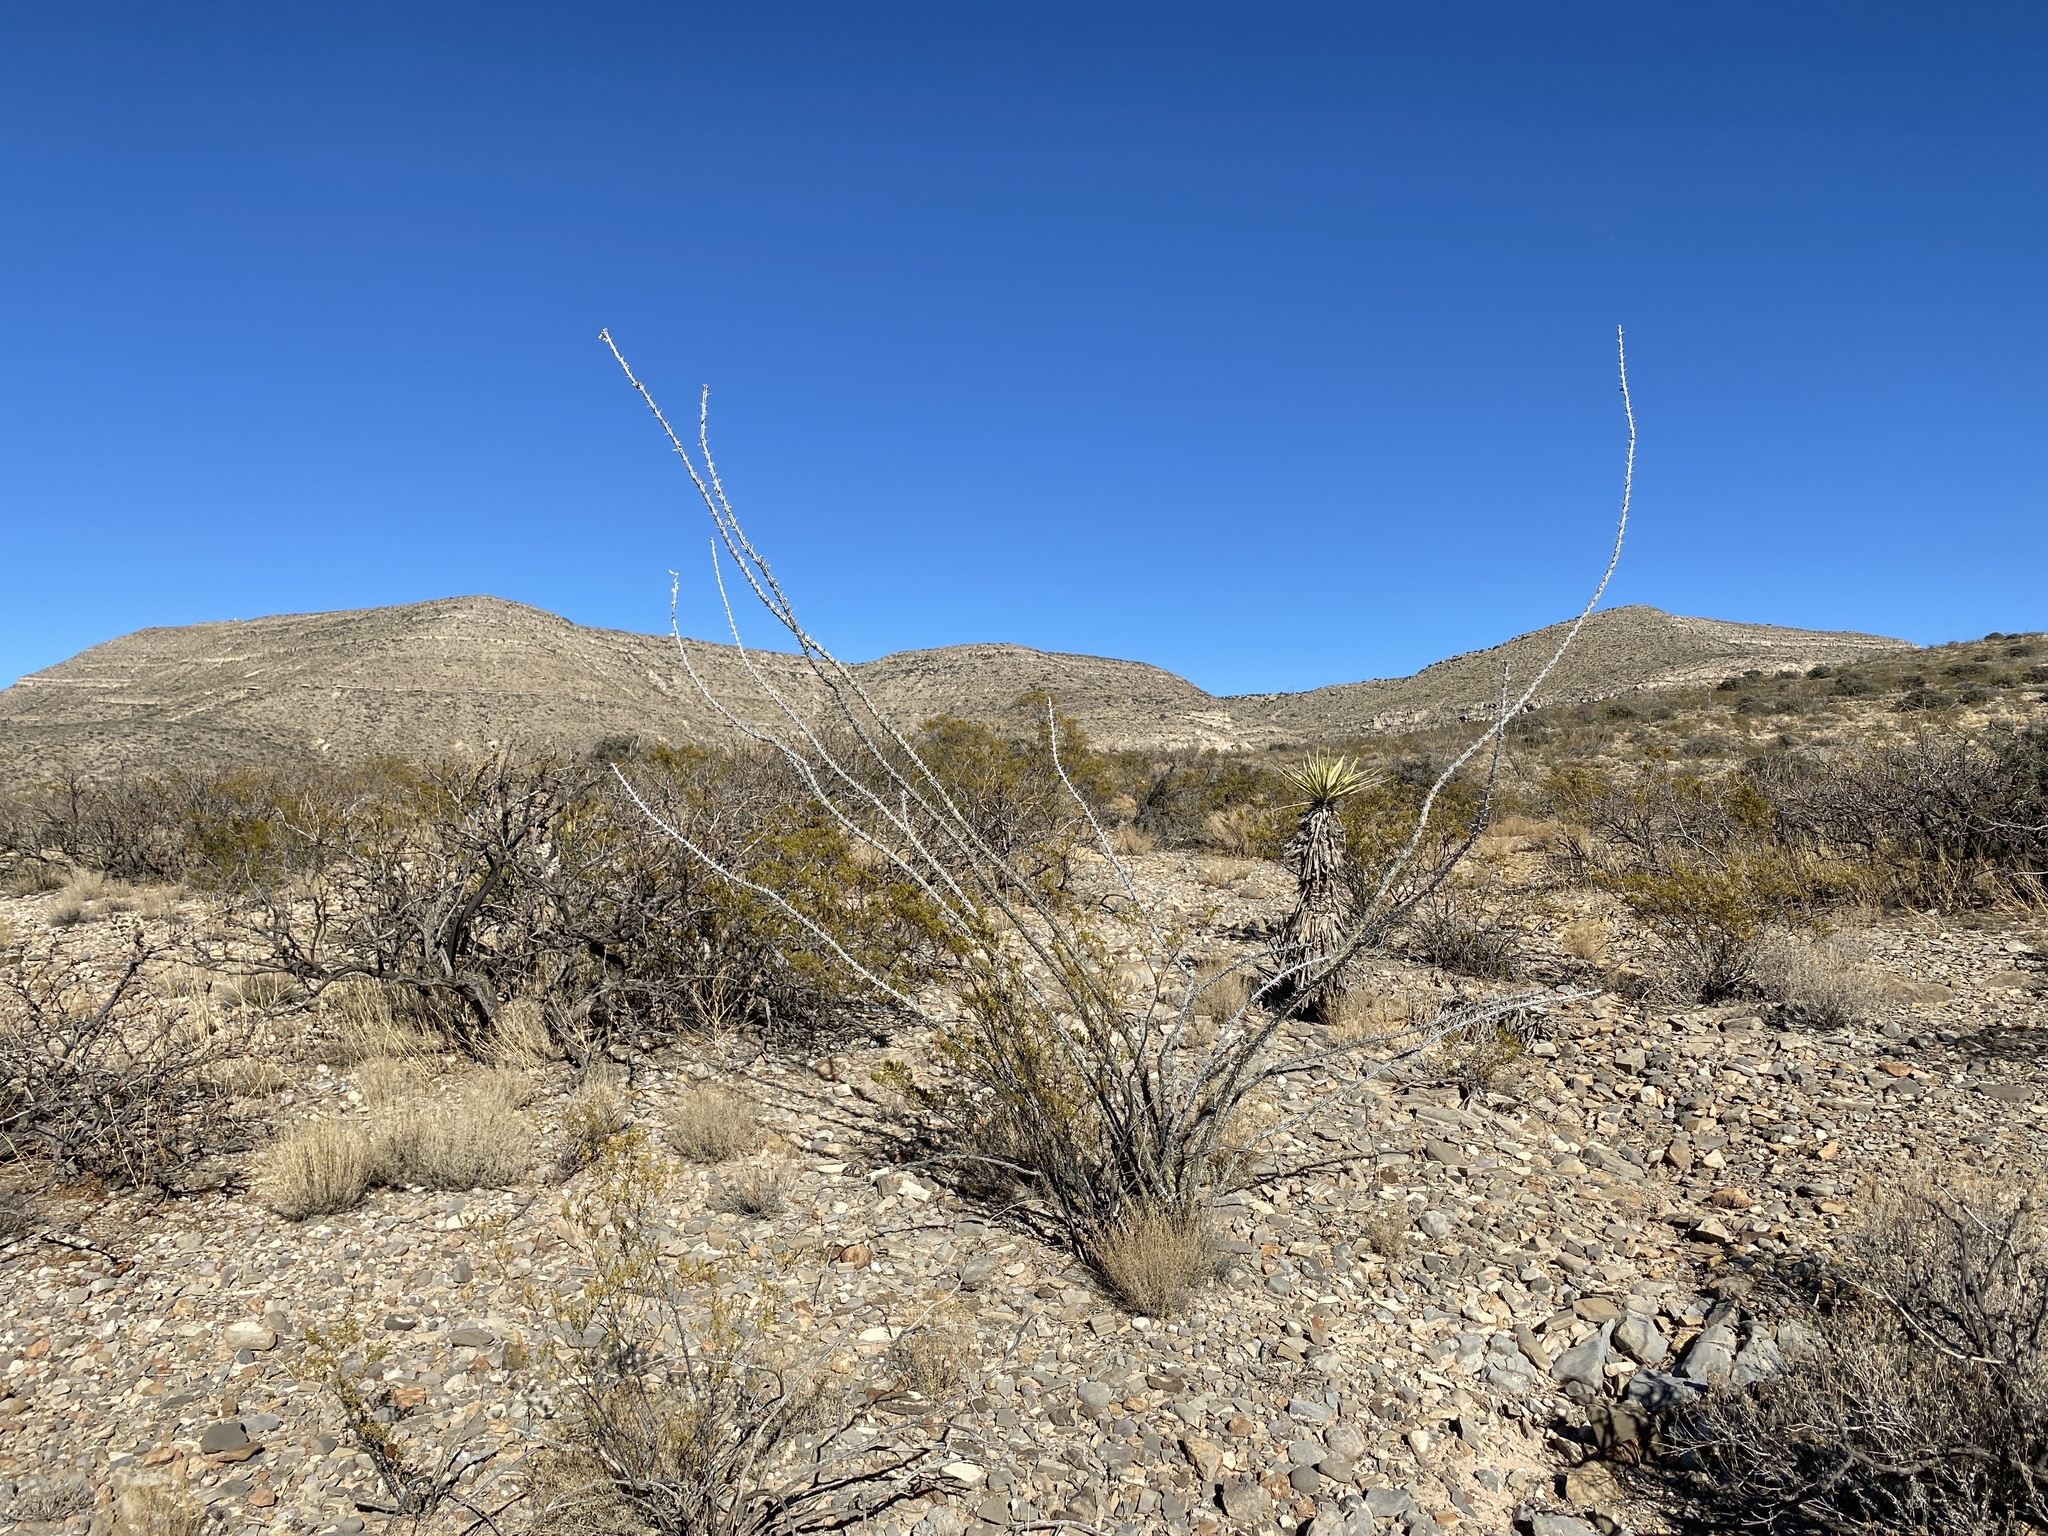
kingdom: Plantae
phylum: Tracheophyta
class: Magnoliopsida
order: Ericales
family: Fouquieriaceae
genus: Fouquieria
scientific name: Fouquieria splendens
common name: Vine-cactus
